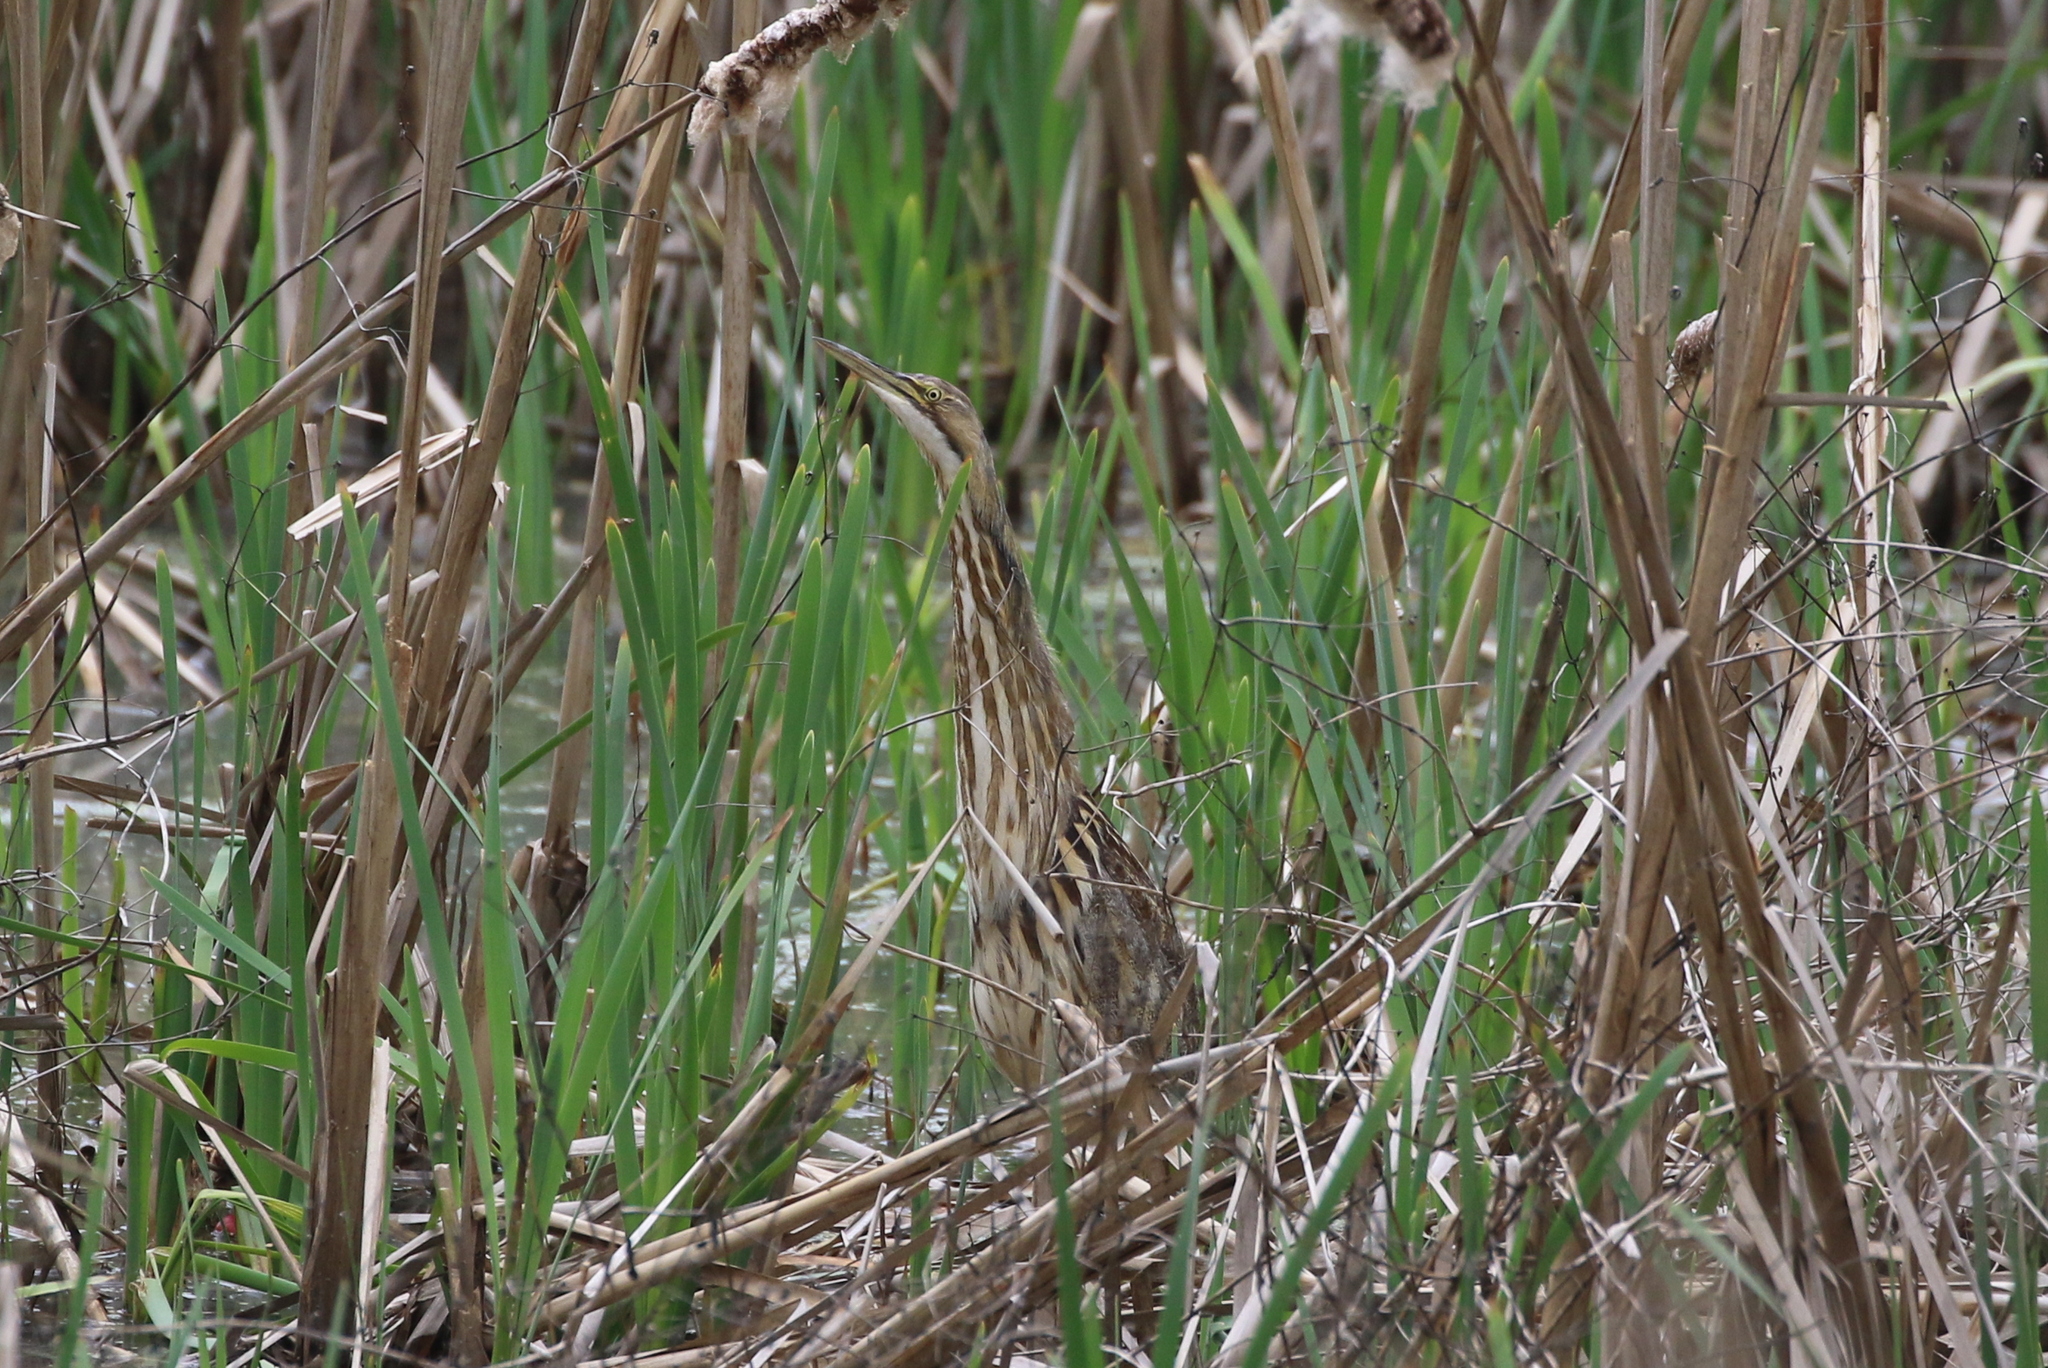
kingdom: Animalia
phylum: Chordata
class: Aves
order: Pelecaniformes
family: Ardeidae
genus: Botaurus
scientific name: Botaurus lentiginosus
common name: American bittern
